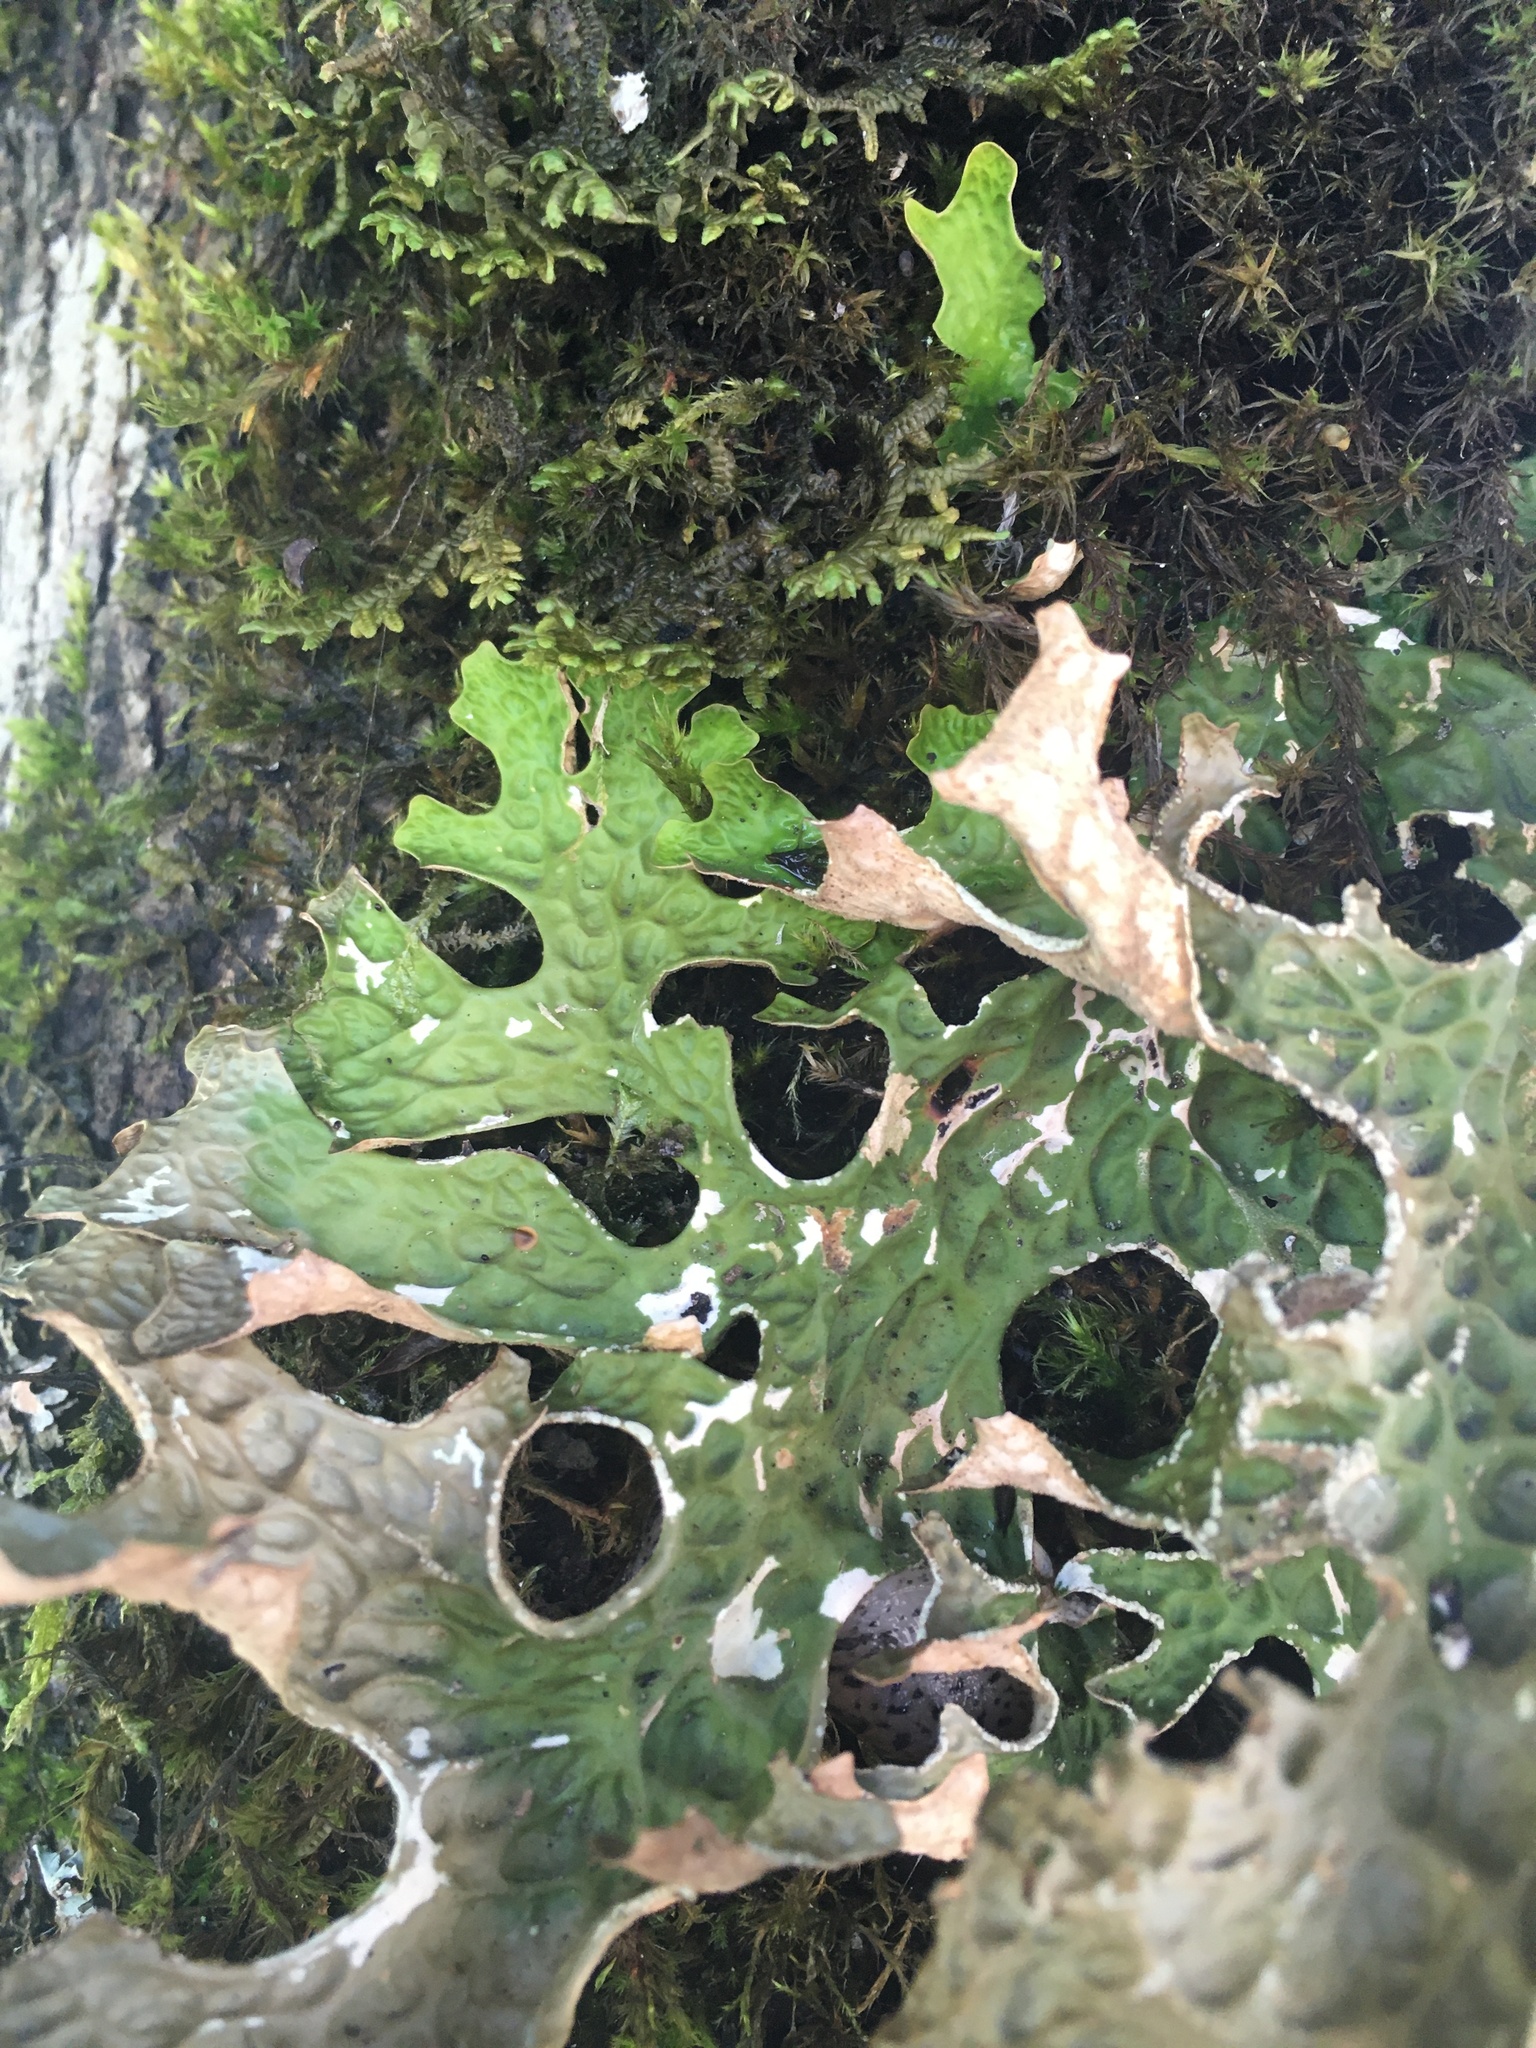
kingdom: Fungi
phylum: Ascomycota
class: Lecanoromycetes
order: Peltigerales
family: Lobariaceae
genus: Lobaria
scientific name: Lobaria pulmonaria
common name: Lungwort
